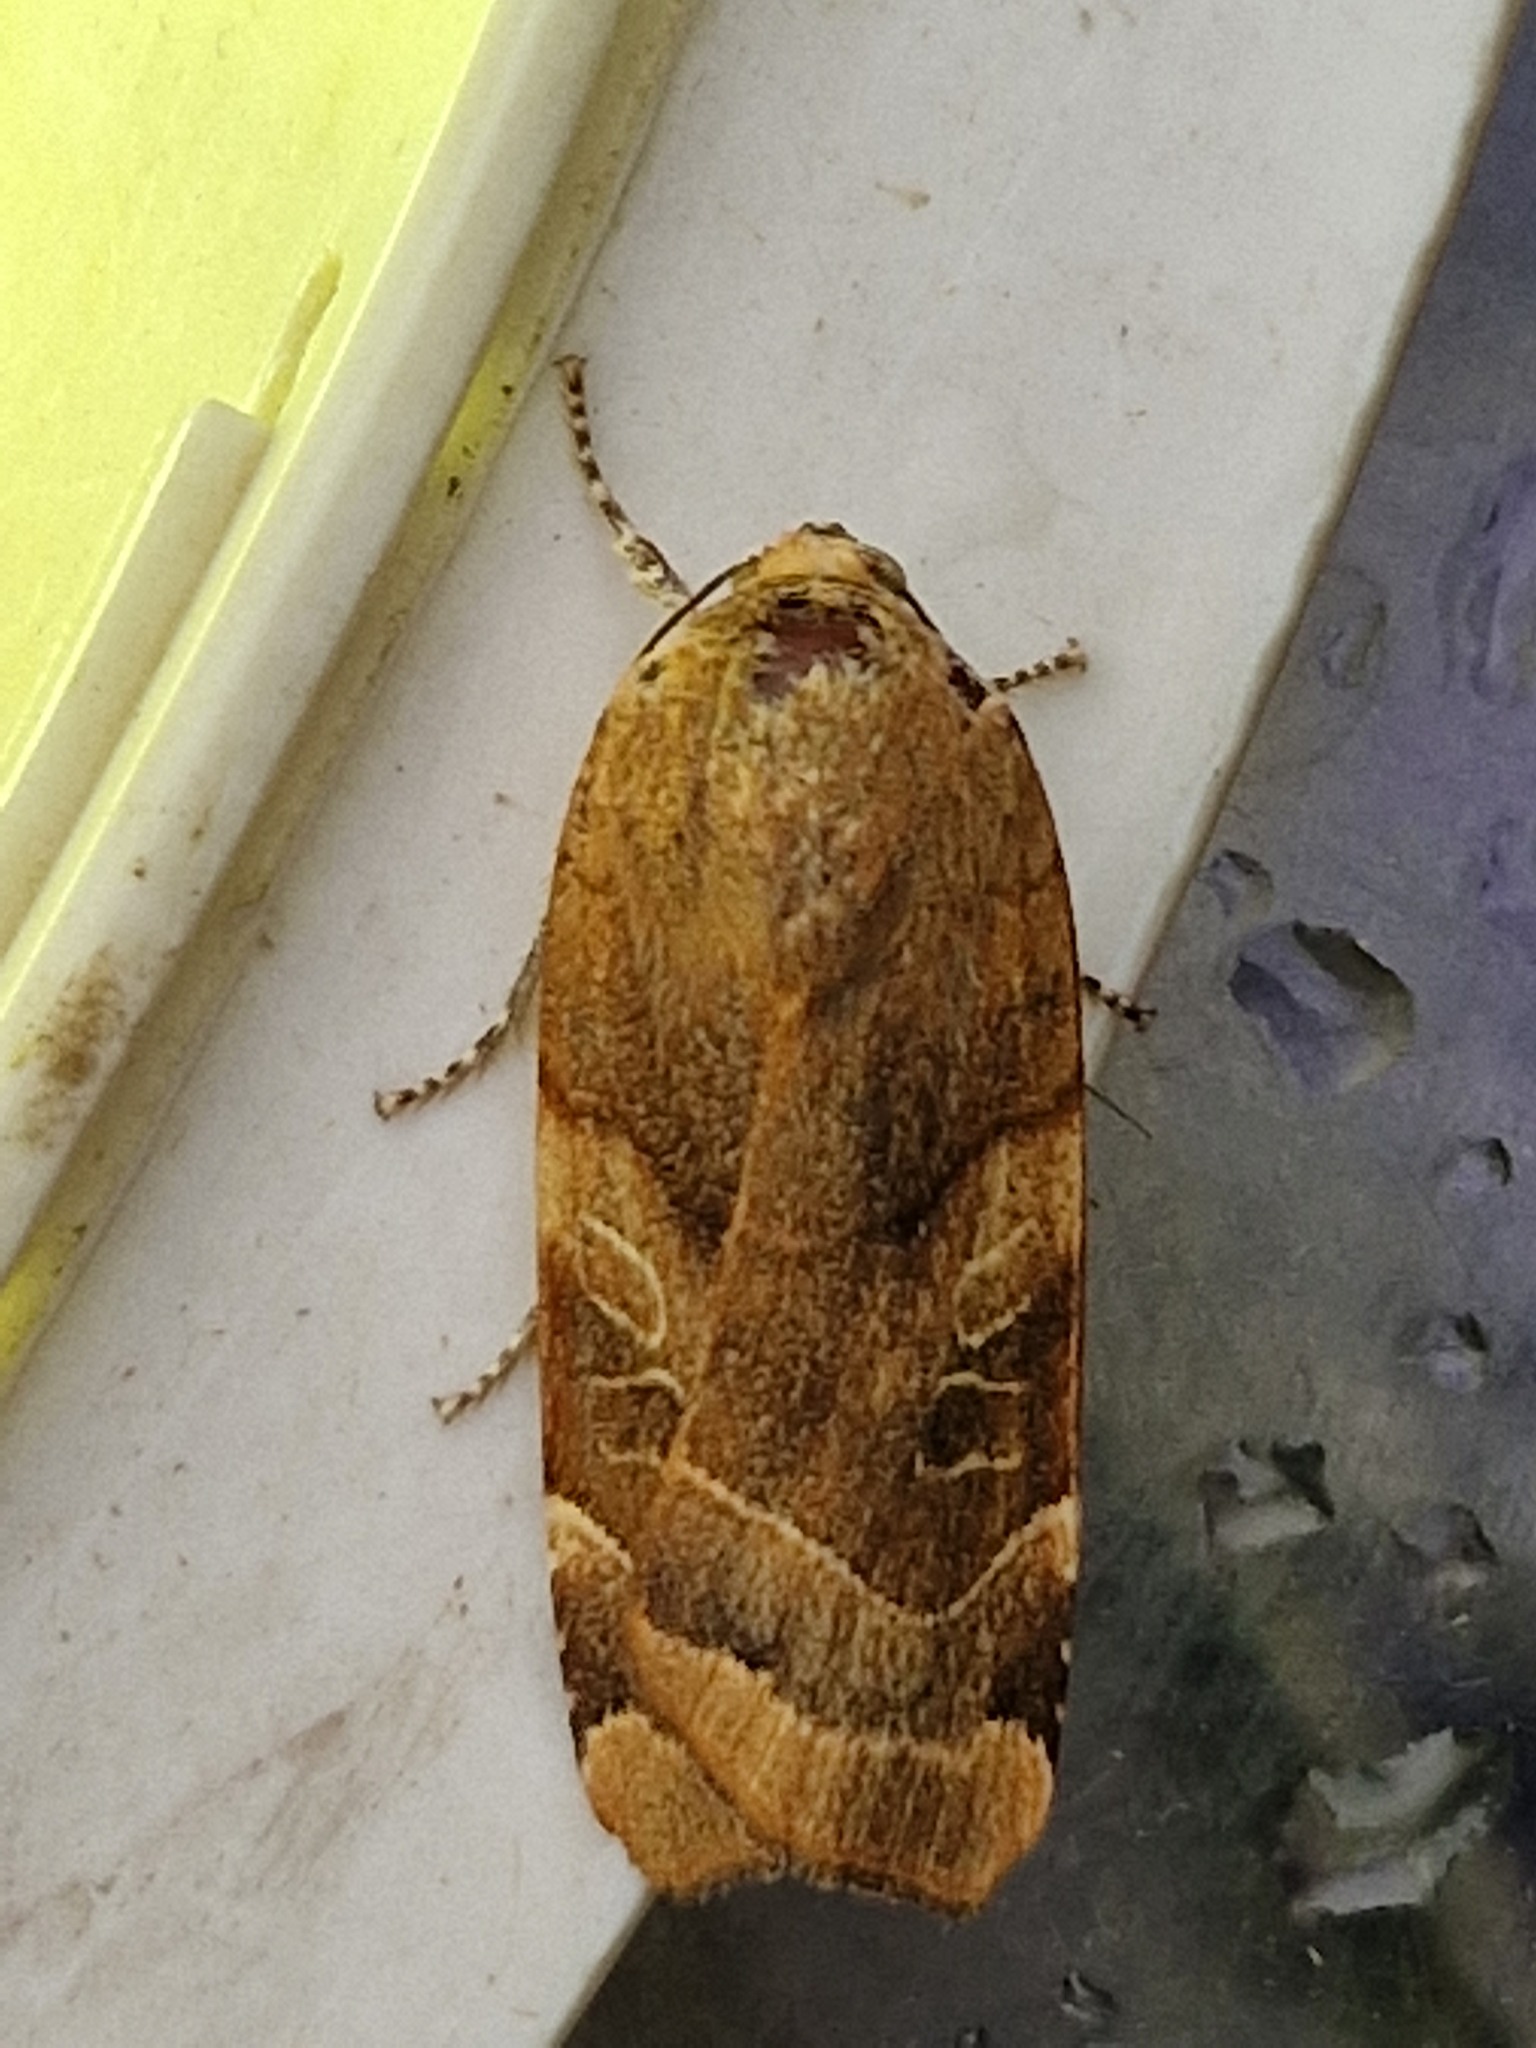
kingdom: Animalia
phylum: Arthropoda
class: Insecta
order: Lepidoptera
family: Noctuidae
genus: Noctua
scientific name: Noctua fimbriata
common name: Broad-bordered yellow underwing
